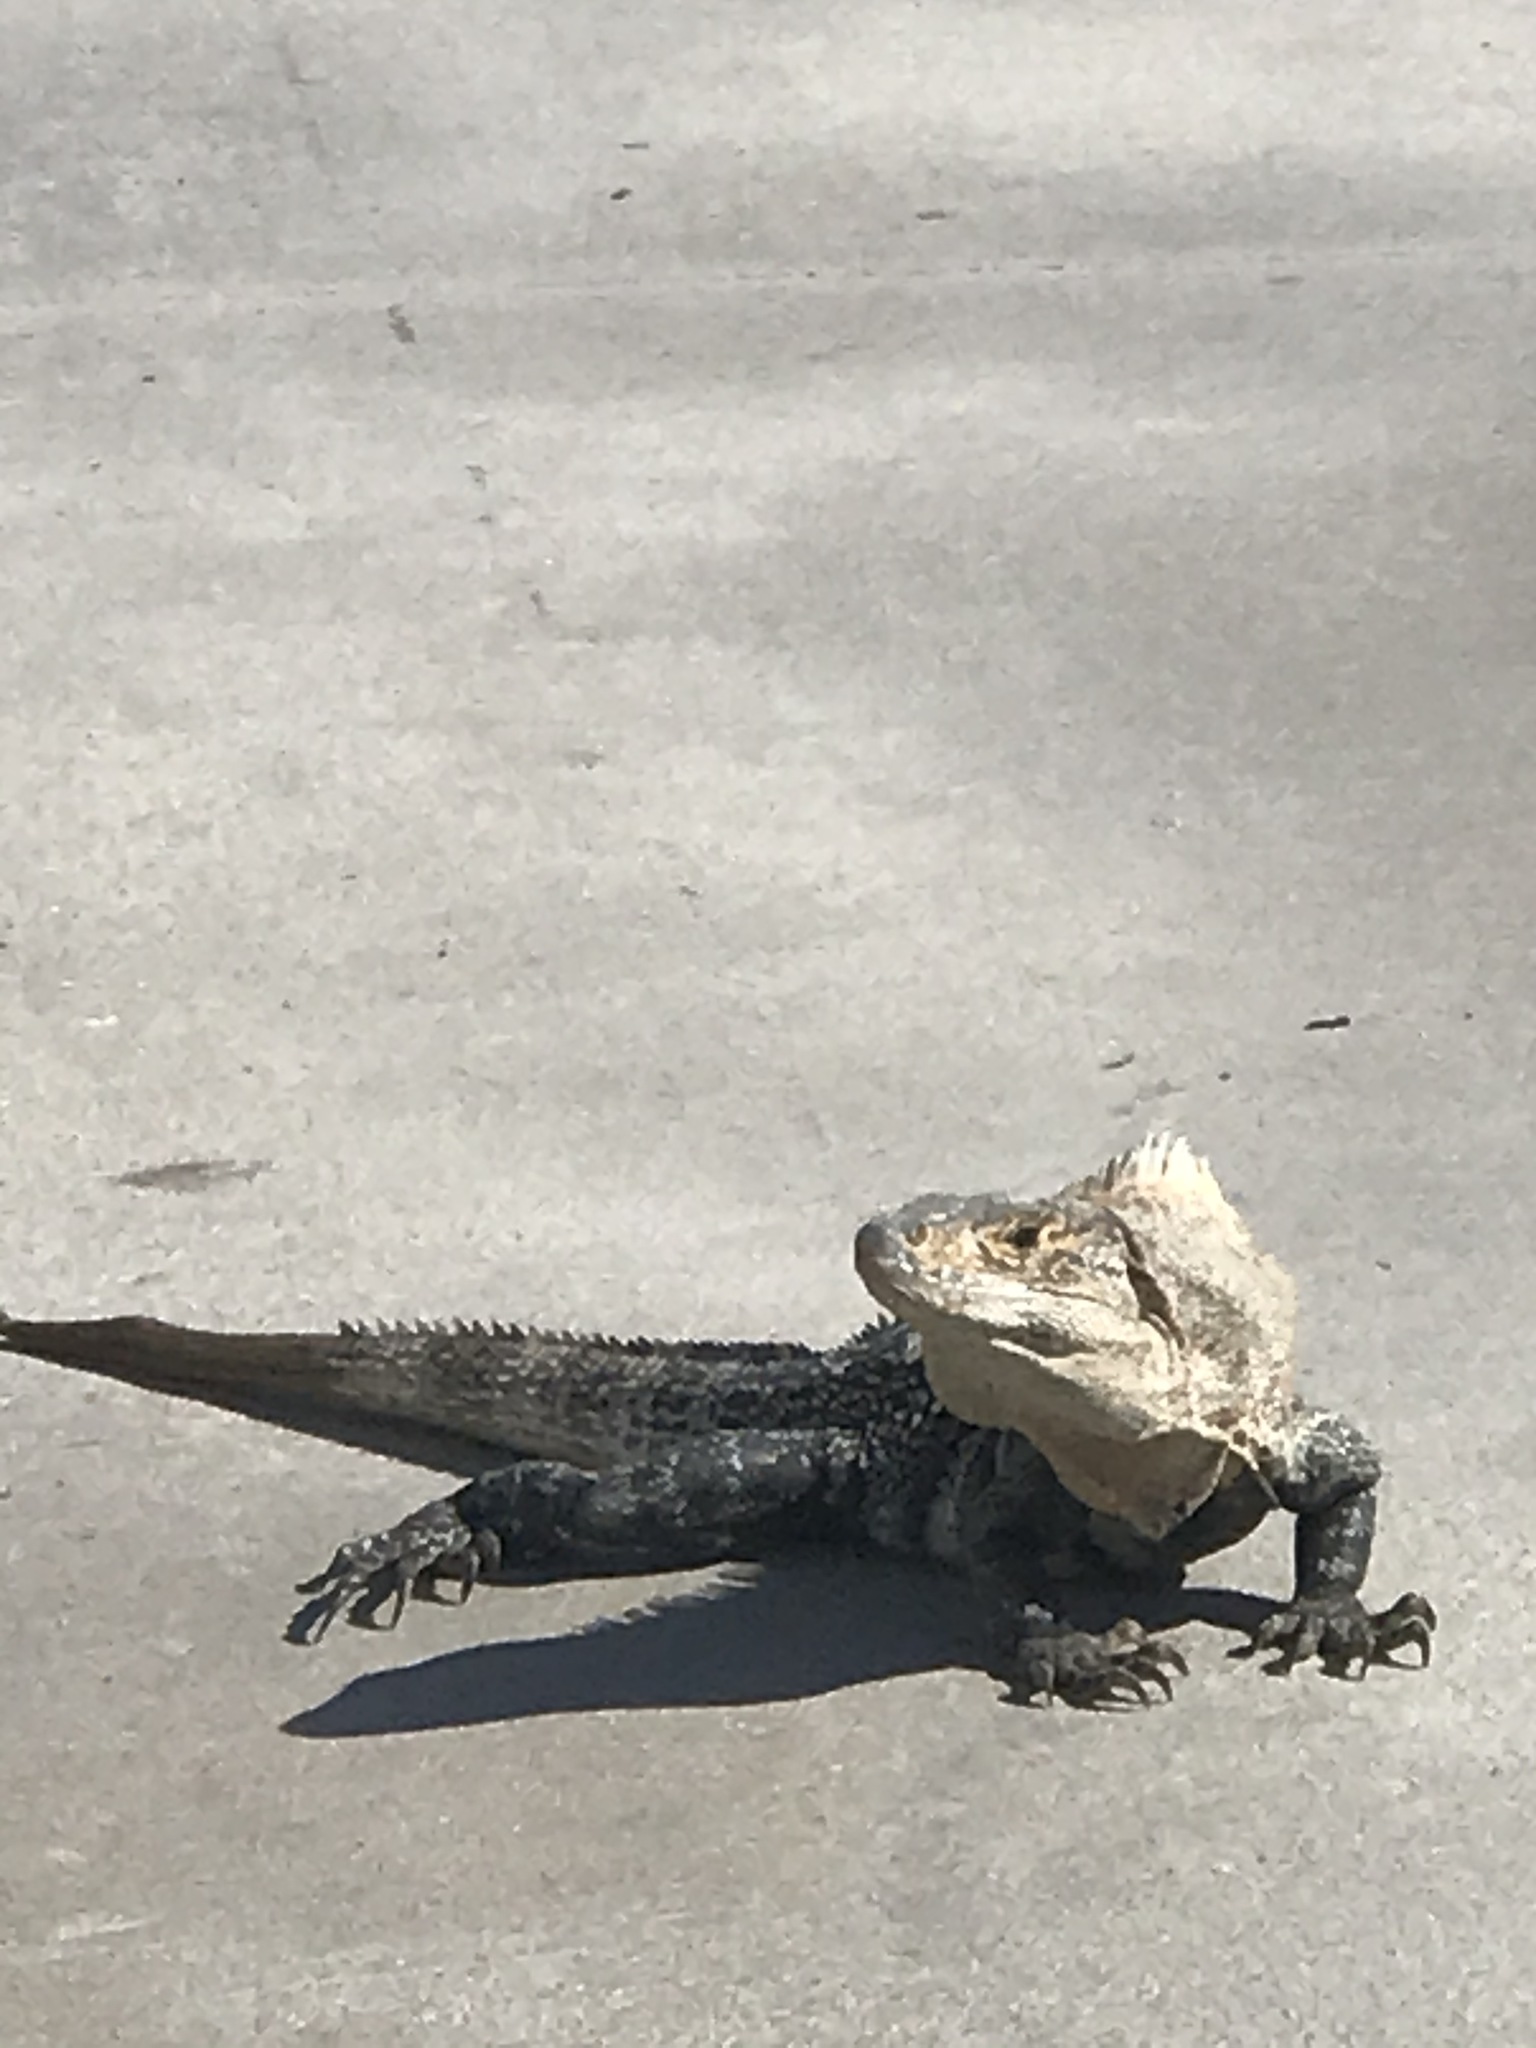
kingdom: Animalia
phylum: Chordata
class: Squamata
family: Iguanidae
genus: Ctenosaura
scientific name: Ctenosaura similis
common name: Black spiny-tailed iguana
